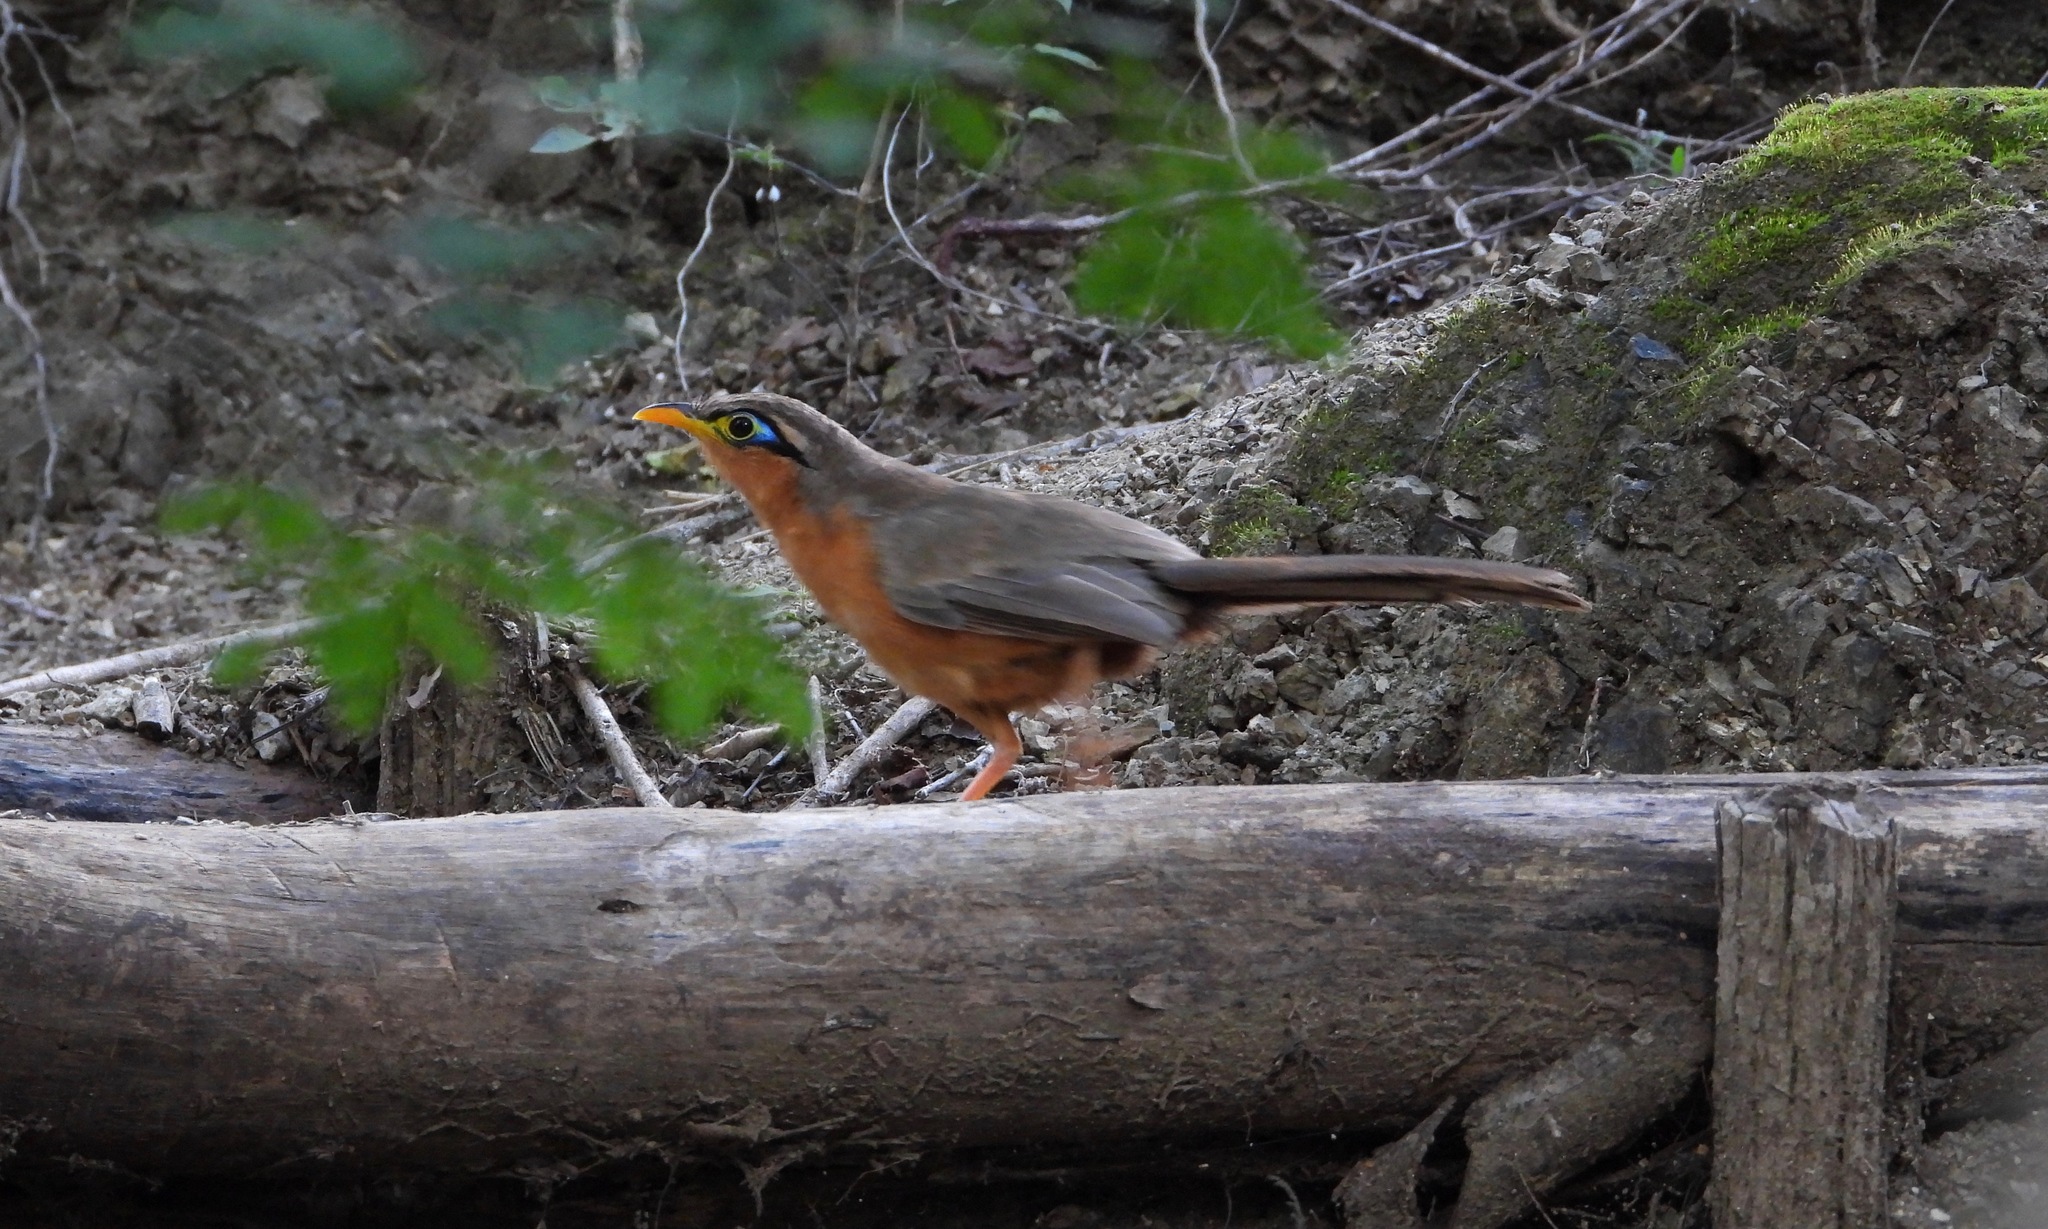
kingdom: Animalia
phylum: Chordata
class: Aves
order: Cuculiformes
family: Cuculidae
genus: Morococcyx
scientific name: Morococcyx erythropygus
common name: Lesser ground-cuckoo
